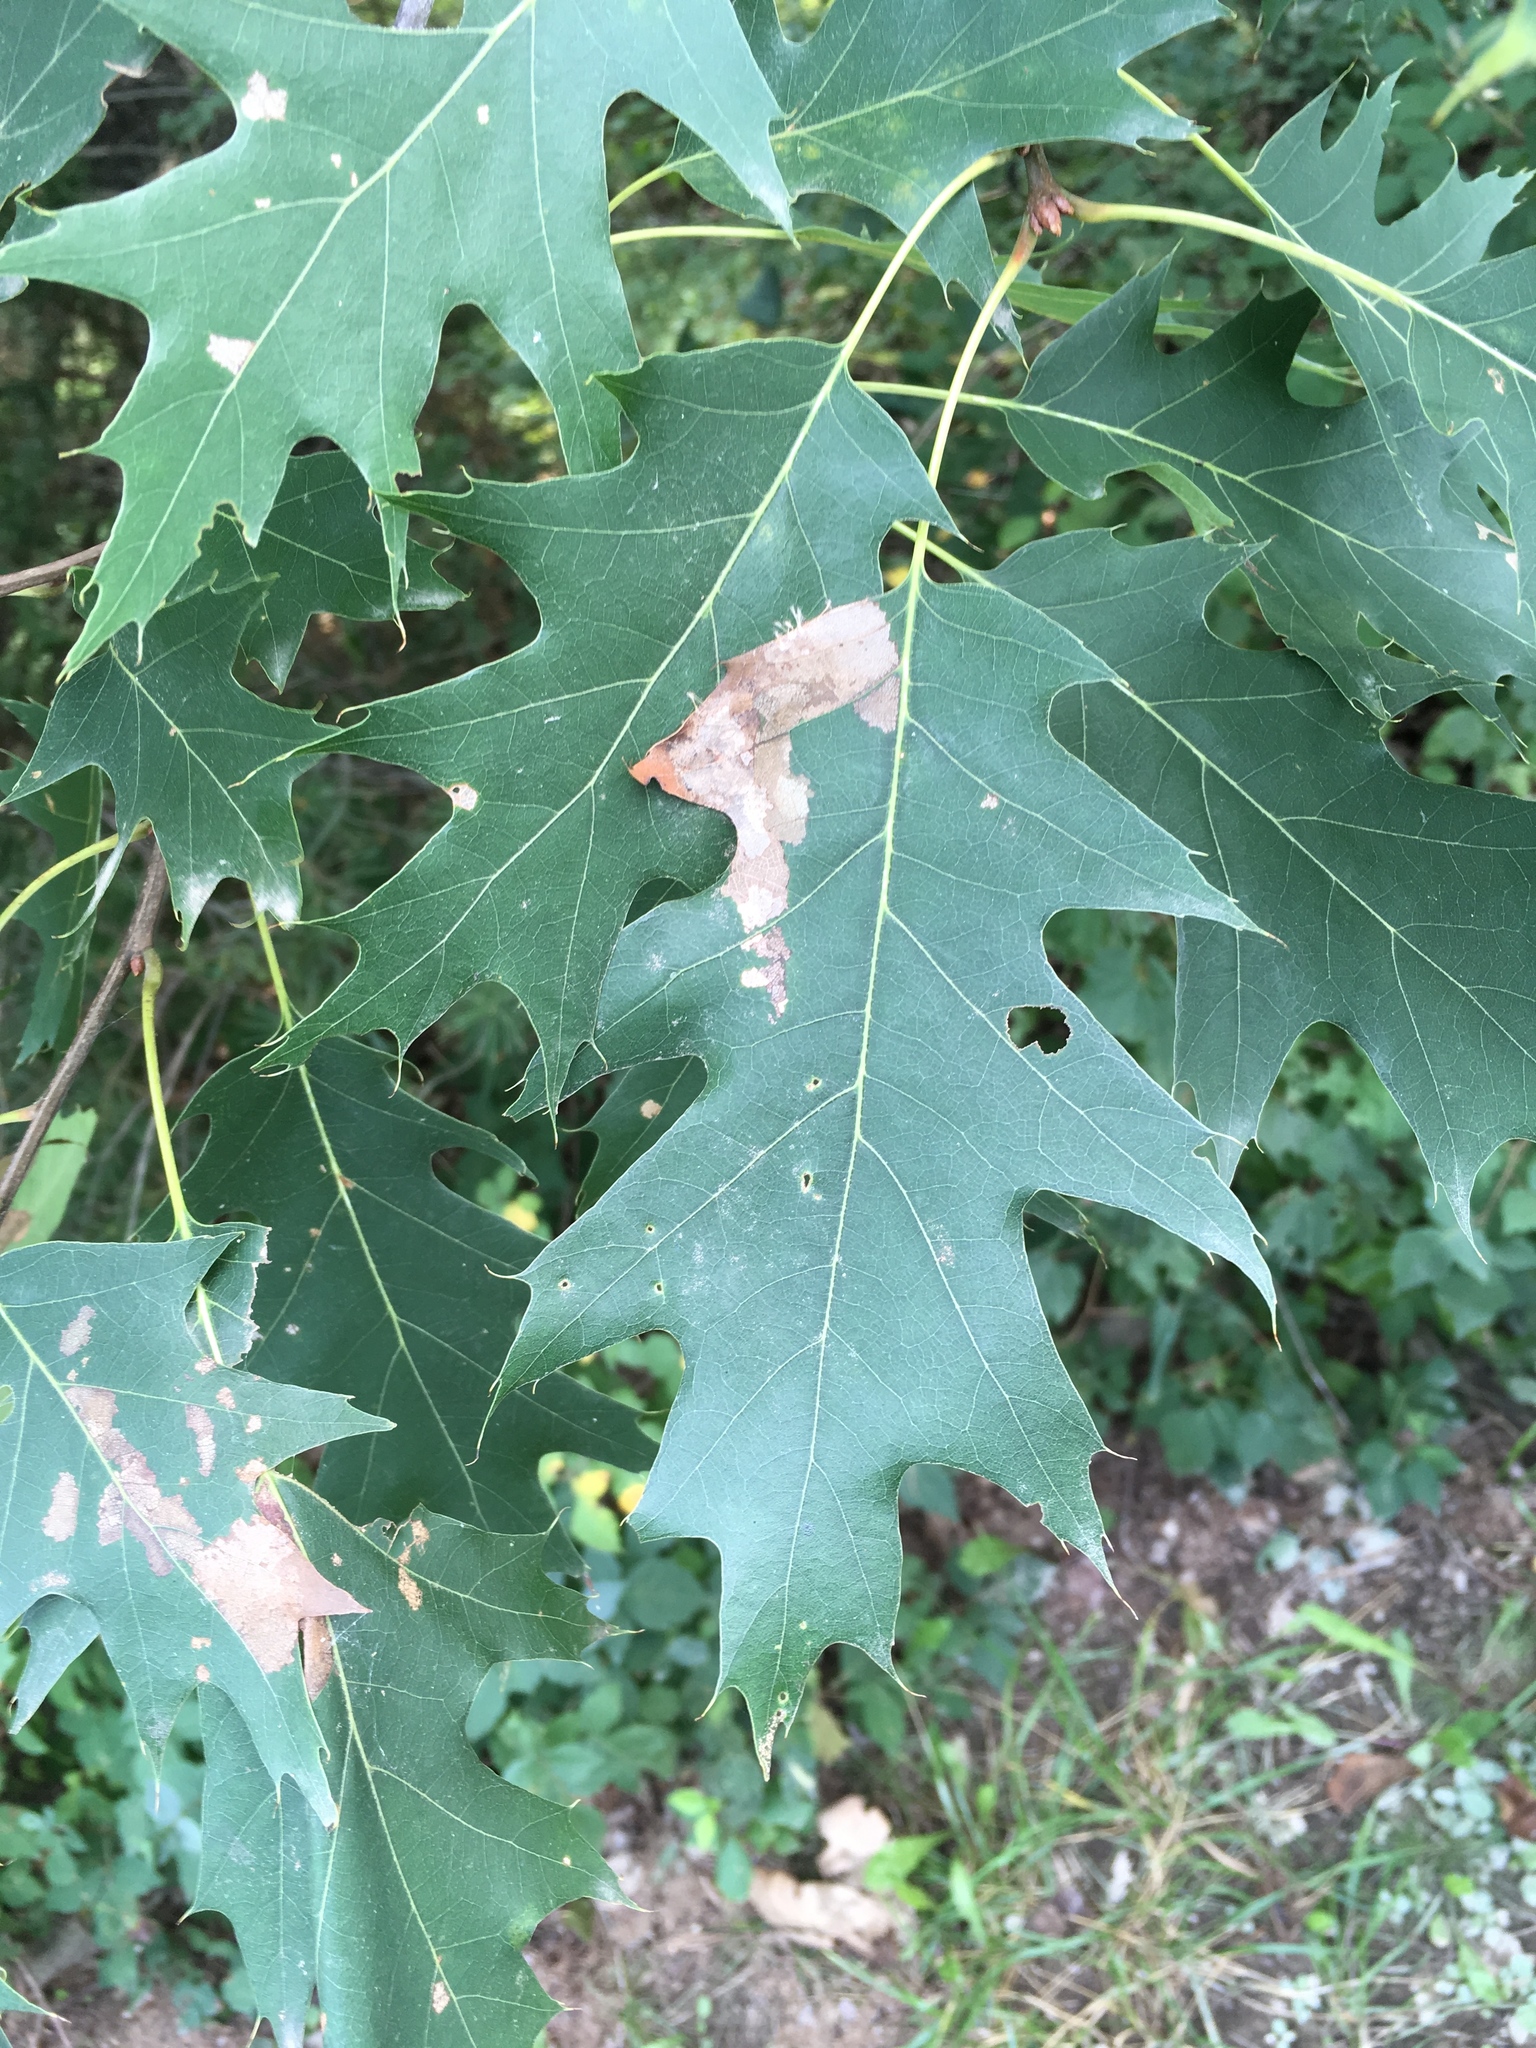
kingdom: Plantae
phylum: Tracheophyta
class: Magnoliopsida
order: Fagales
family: Fagaceae
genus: Quercus
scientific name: Quercus rubra
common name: Red oak
